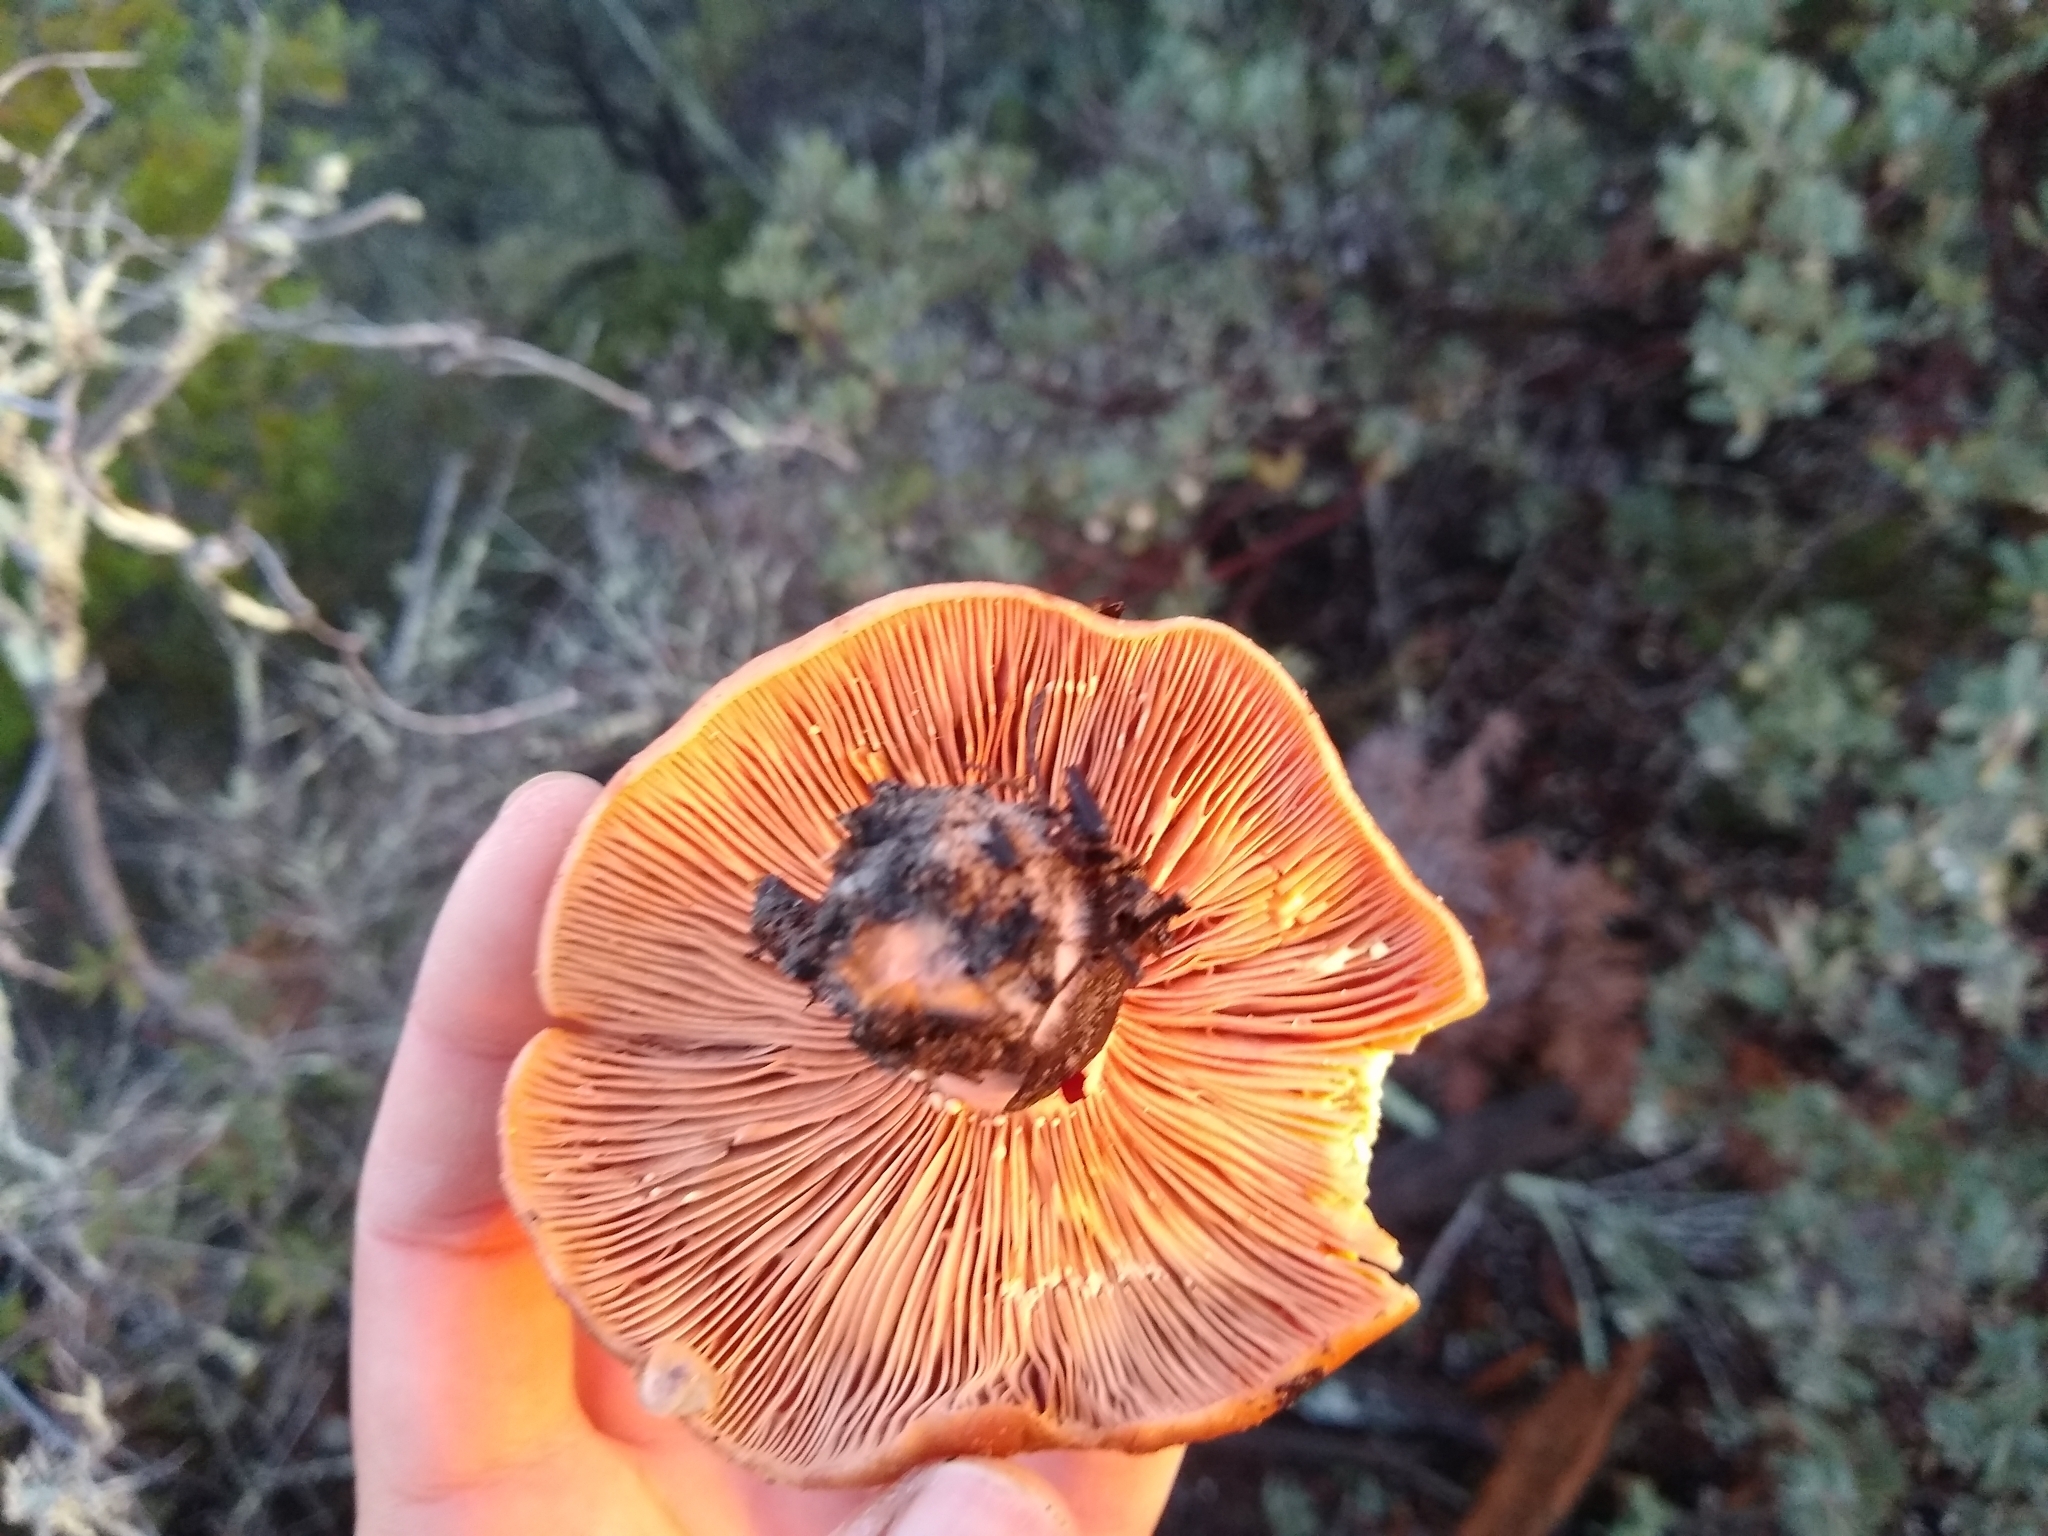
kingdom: Fungi
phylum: Basidiomycota
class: Agaricomycetes
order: Russulales
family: Russulaceae
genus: Lactarius
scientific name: Lactarius xanthogalactus
